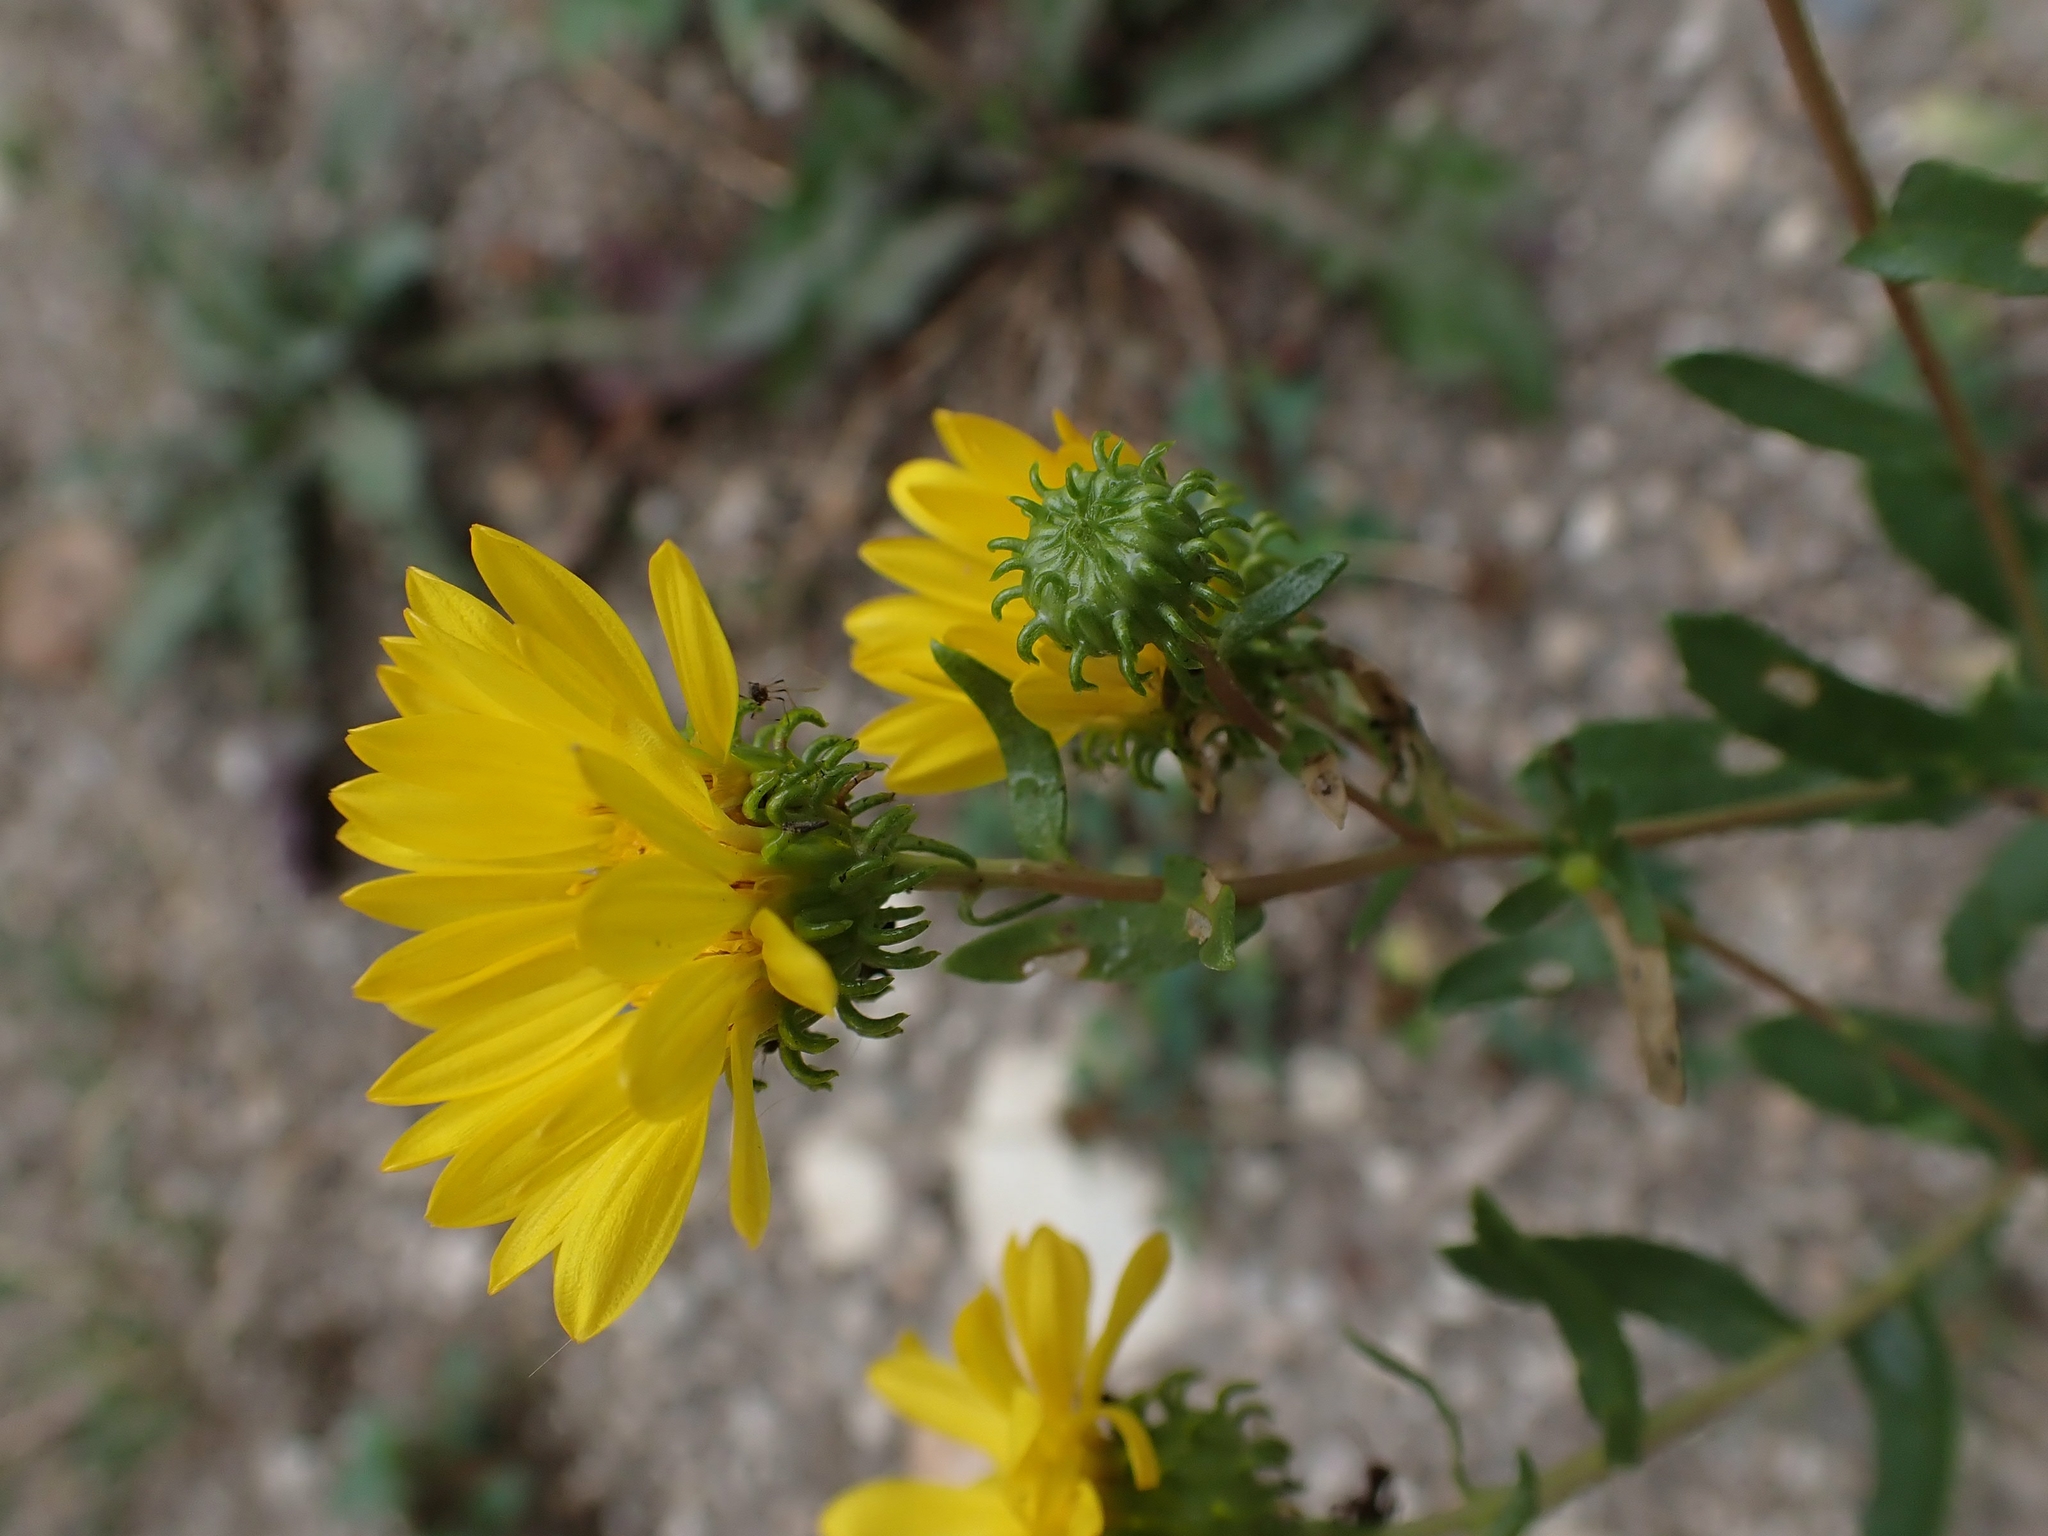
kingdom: Plantae
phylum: Tracheophyta
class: Magnoliopsida
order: Asterales
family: Asteraceae
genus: Grindelia
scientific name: Grindelia squarrosa
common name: Curly-cup gumweed
